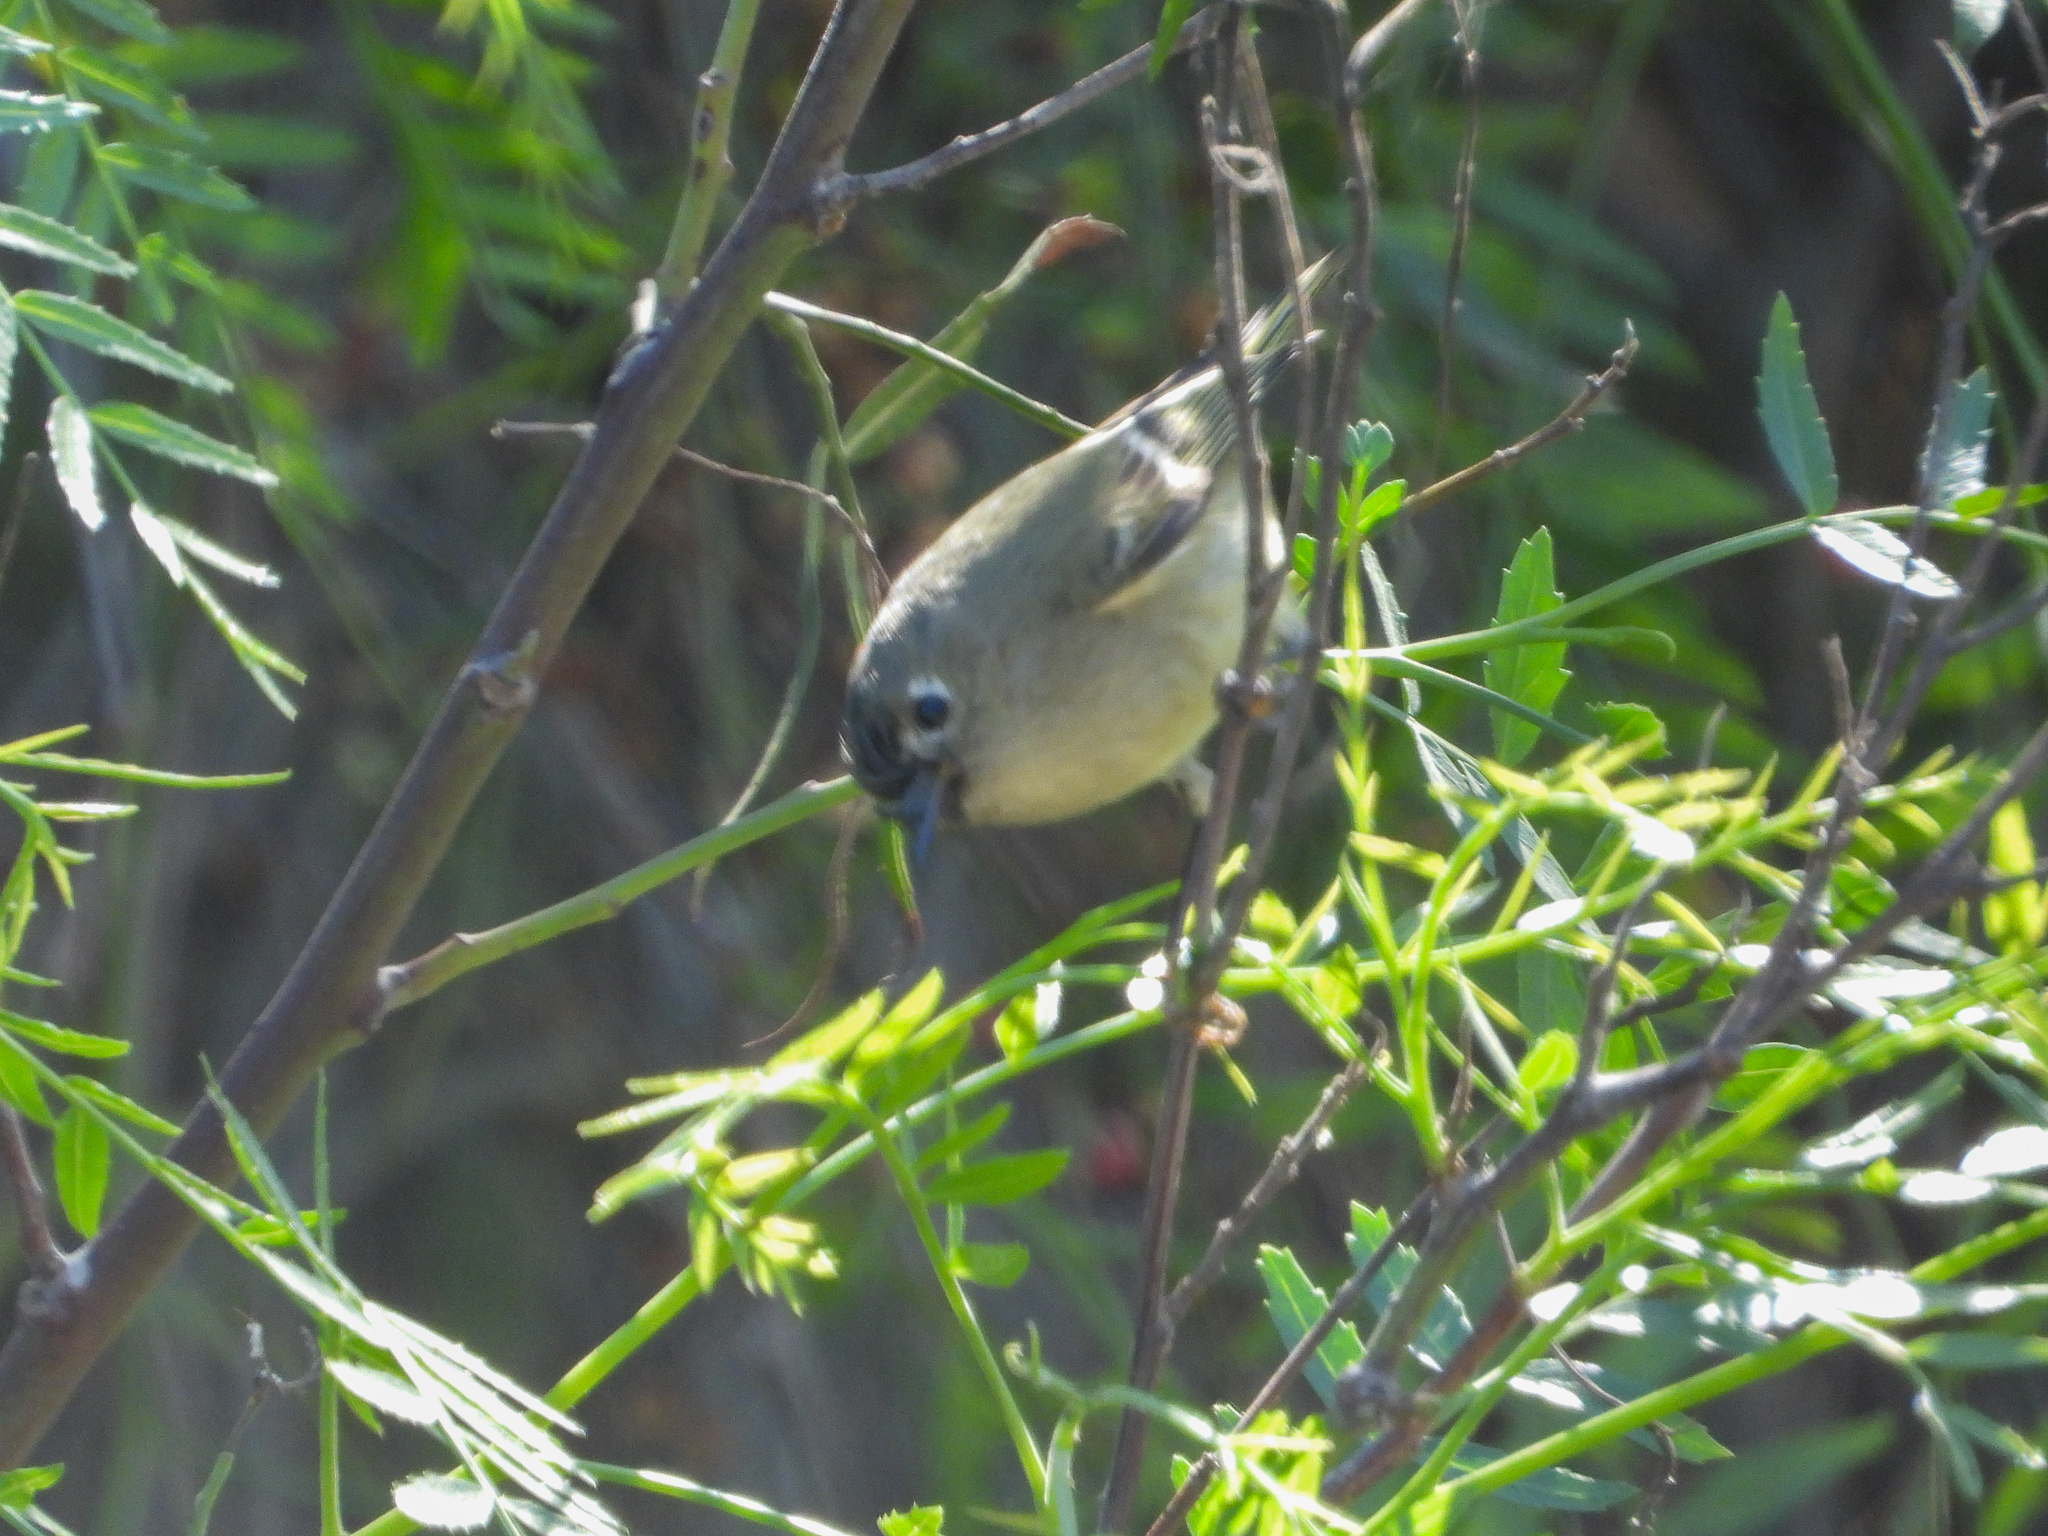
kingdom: Animalia
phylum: Chordata
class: Aves
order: Passeriformes
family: Regulidae
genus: Regulus
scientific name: Regulus calendula
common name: Ruby-crowned kinglet
